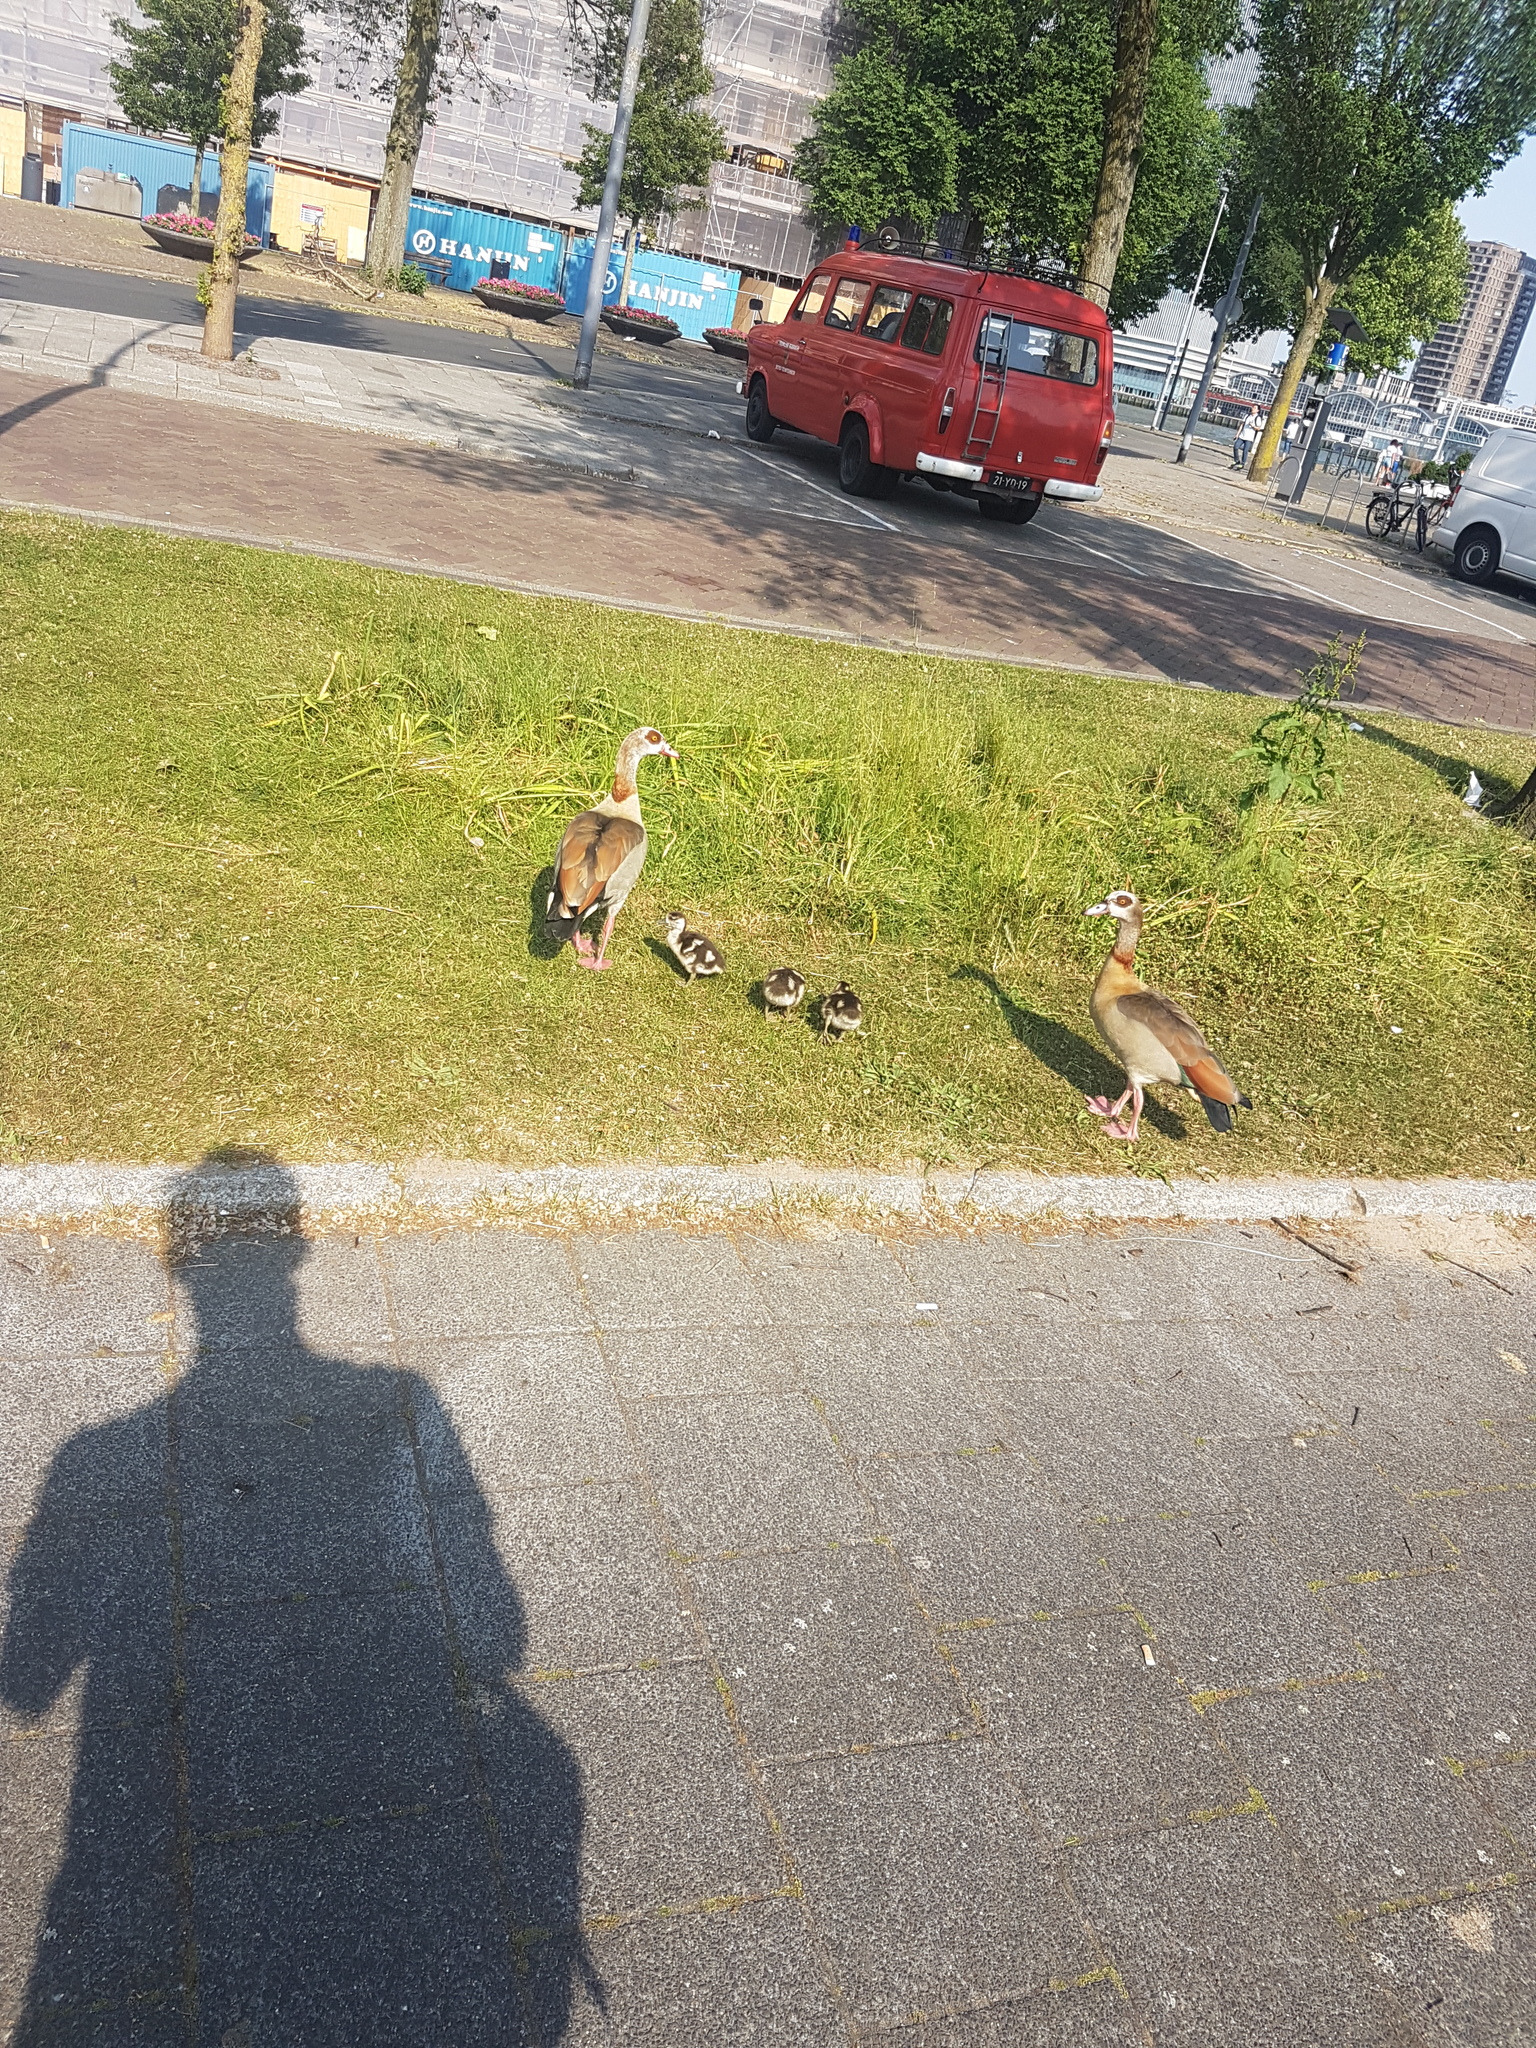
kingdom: Animalia
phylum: Chordata
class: Aves
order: Anseriformes
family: Anatidae
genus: Alopochen
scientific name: Alopochen aegyptiaca
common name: Egyptian goose
